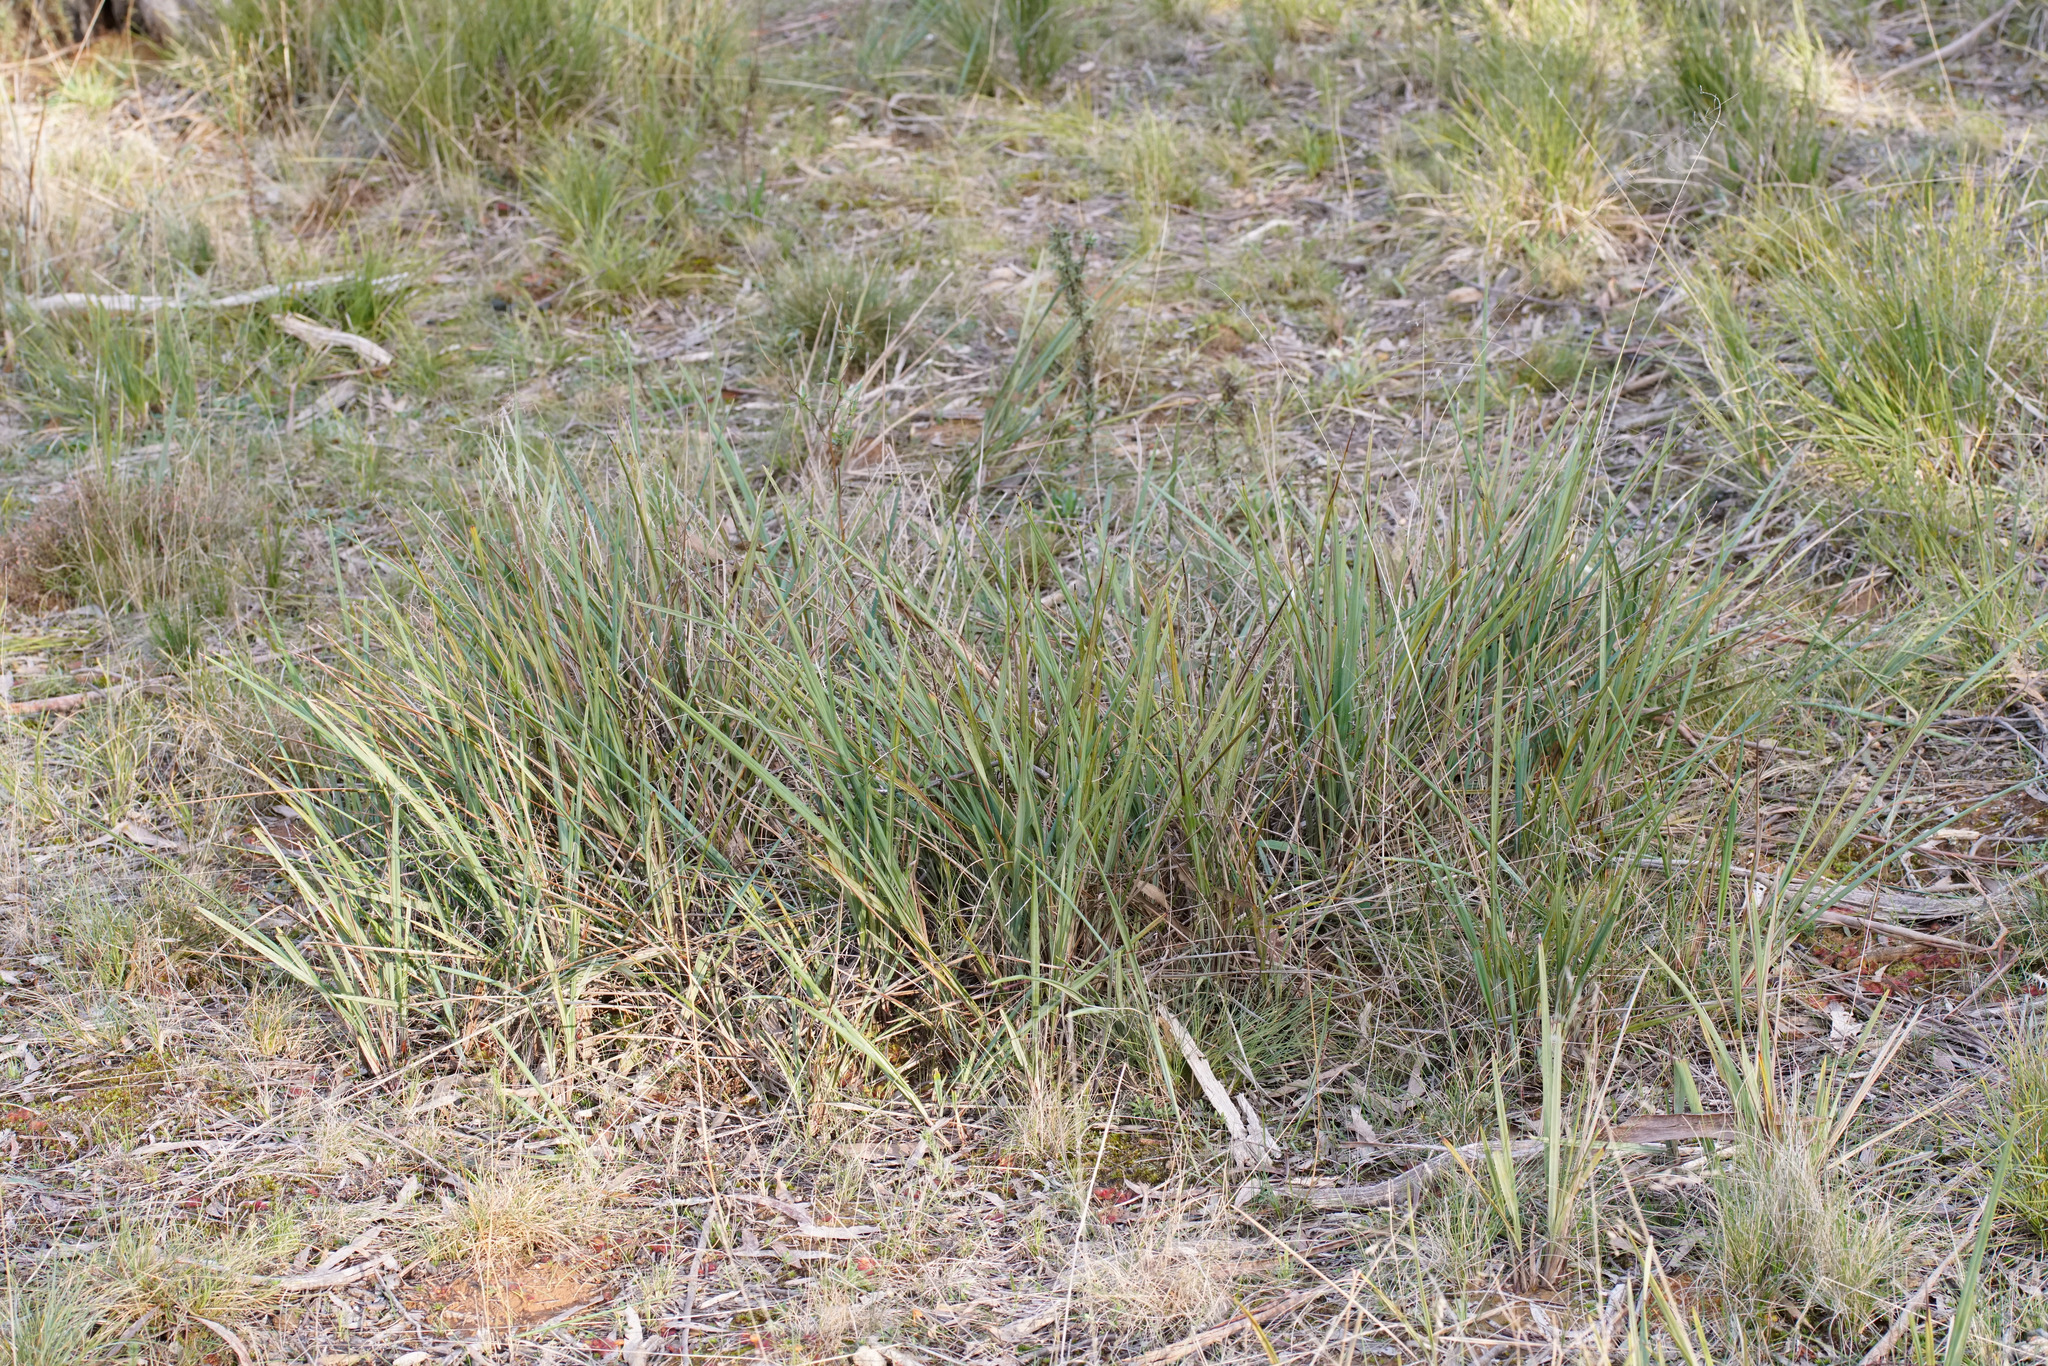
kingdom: Plantae
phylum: Tracheophyta
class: Liliopsida
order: Asparagales
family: Asphodelaceae
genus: Dianella
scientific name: Dianella revoluta
